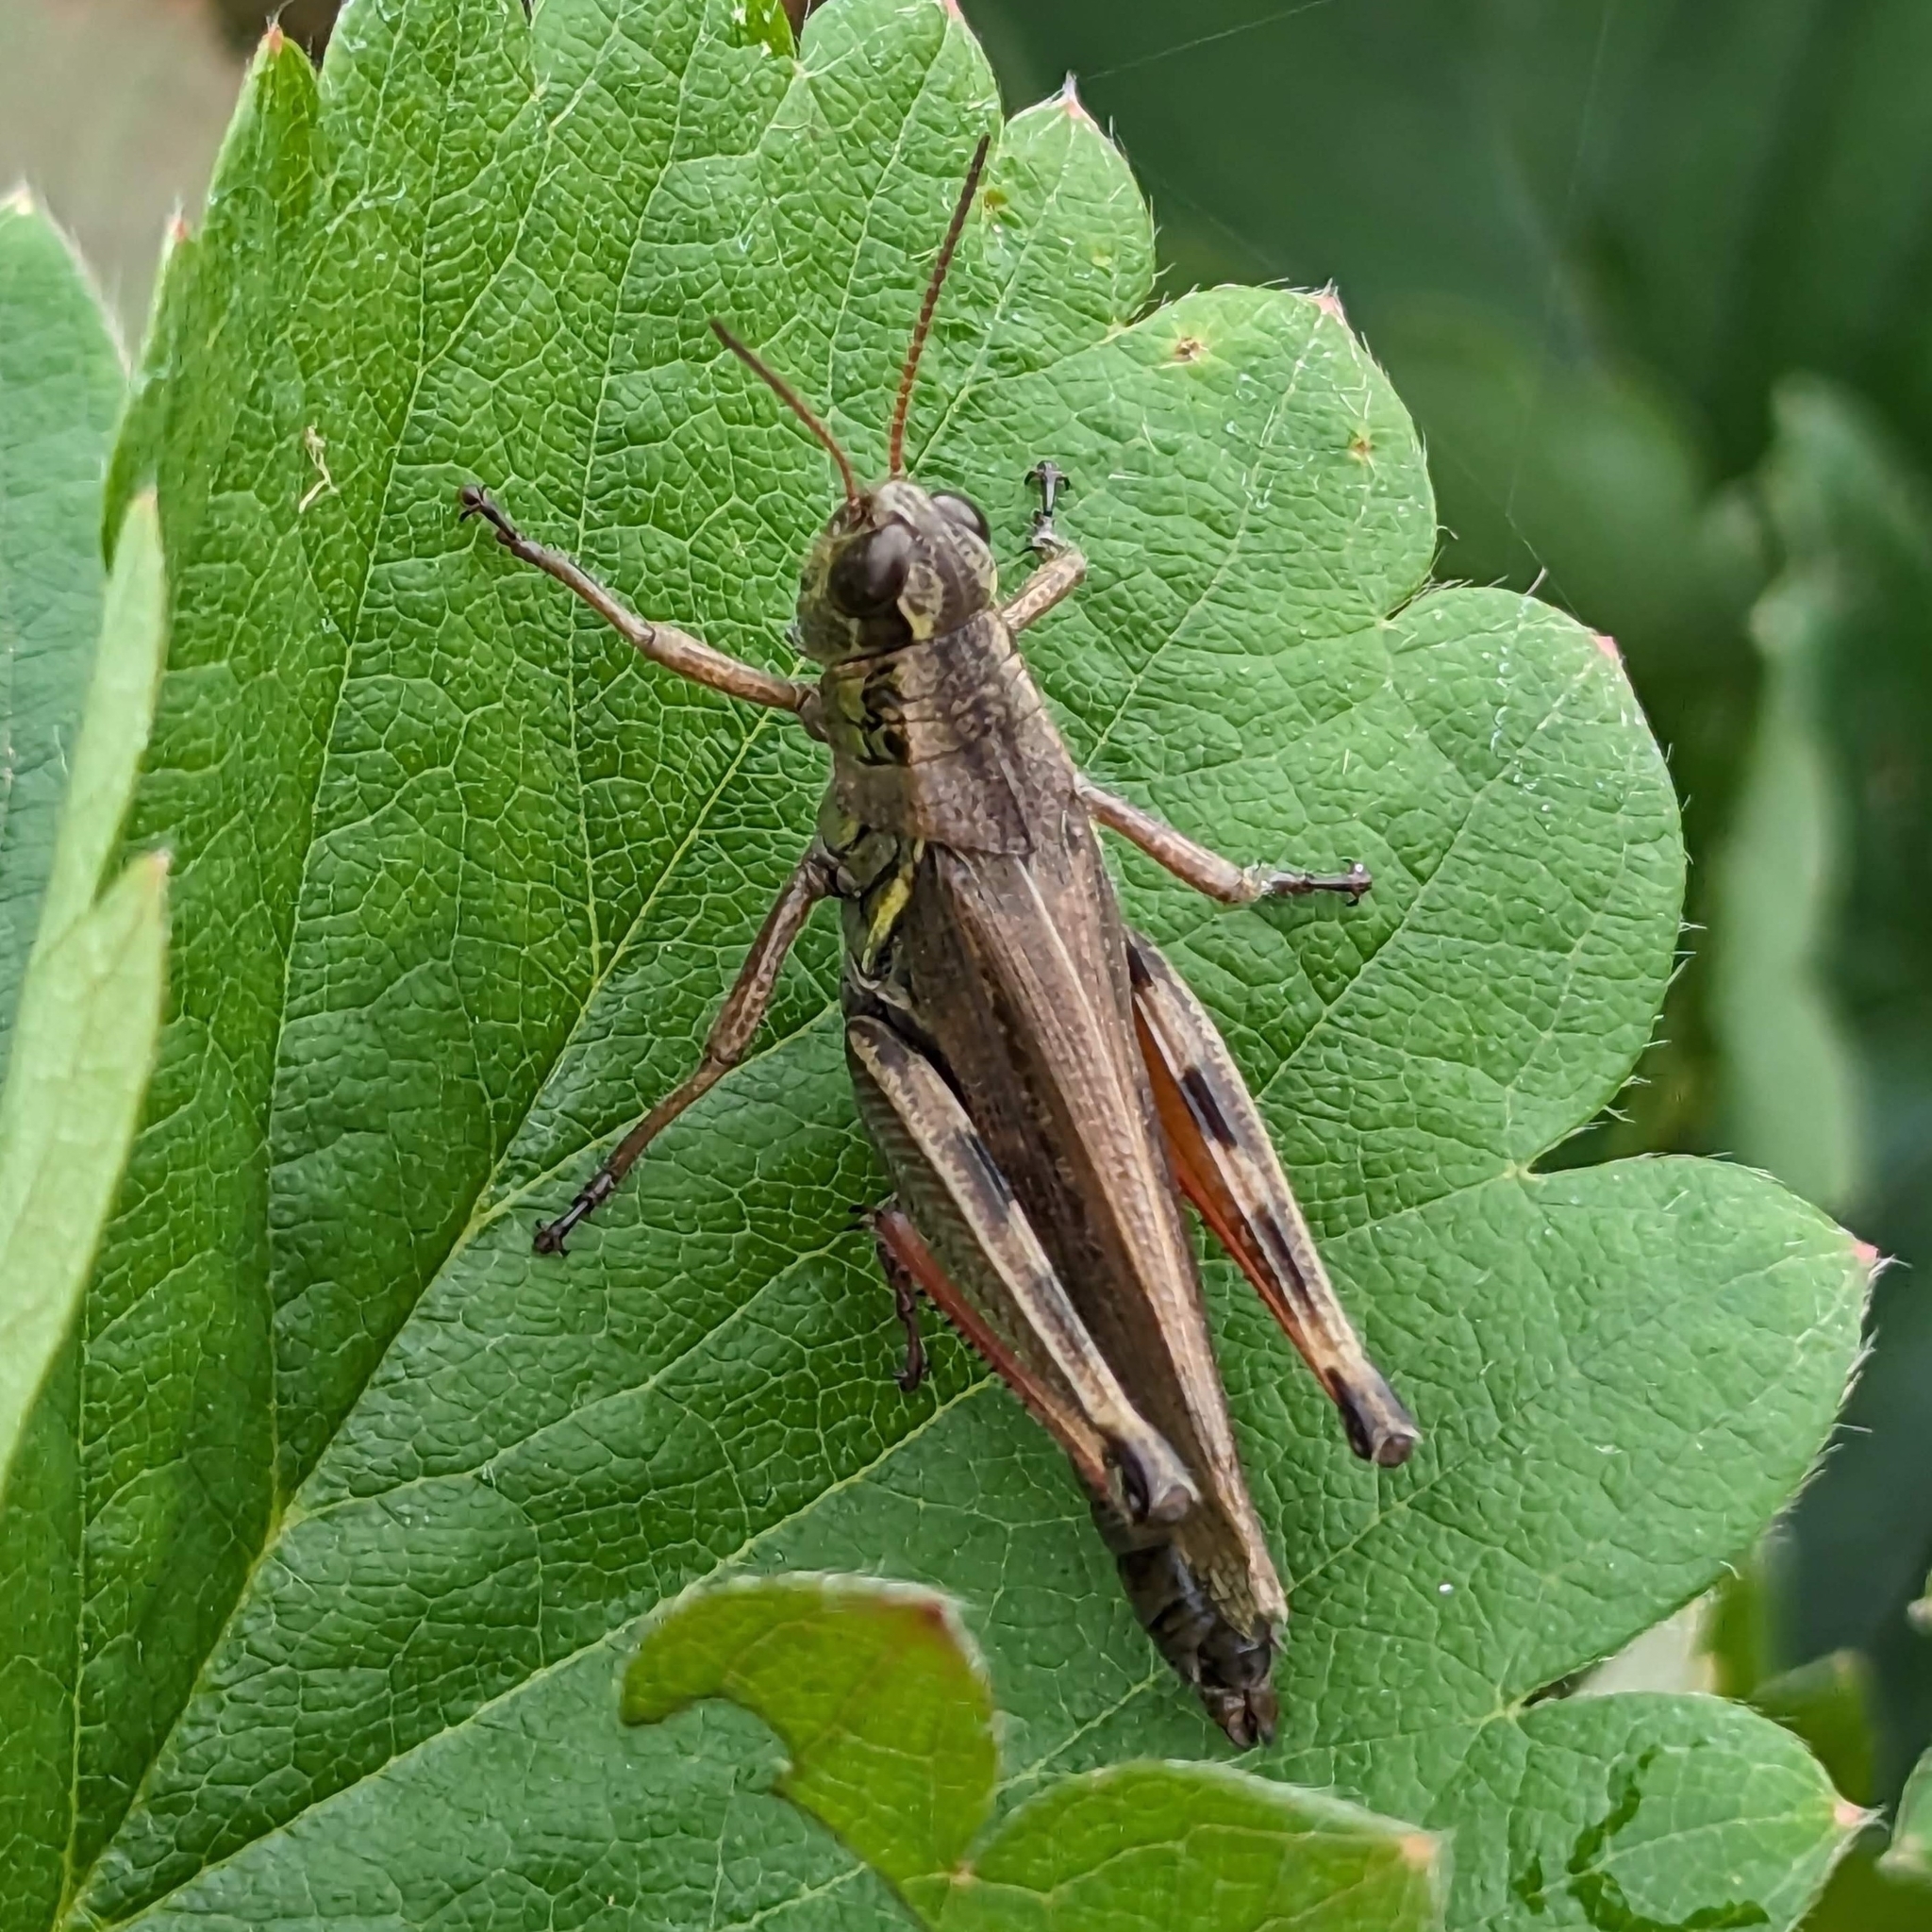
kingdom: Animalia
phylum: Arthropoda
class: Insecta
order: Orthoptera
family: Acrididae
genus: Melanoplus
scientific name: Melanoplus femurrubrum
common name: Red-legged grasshopper
